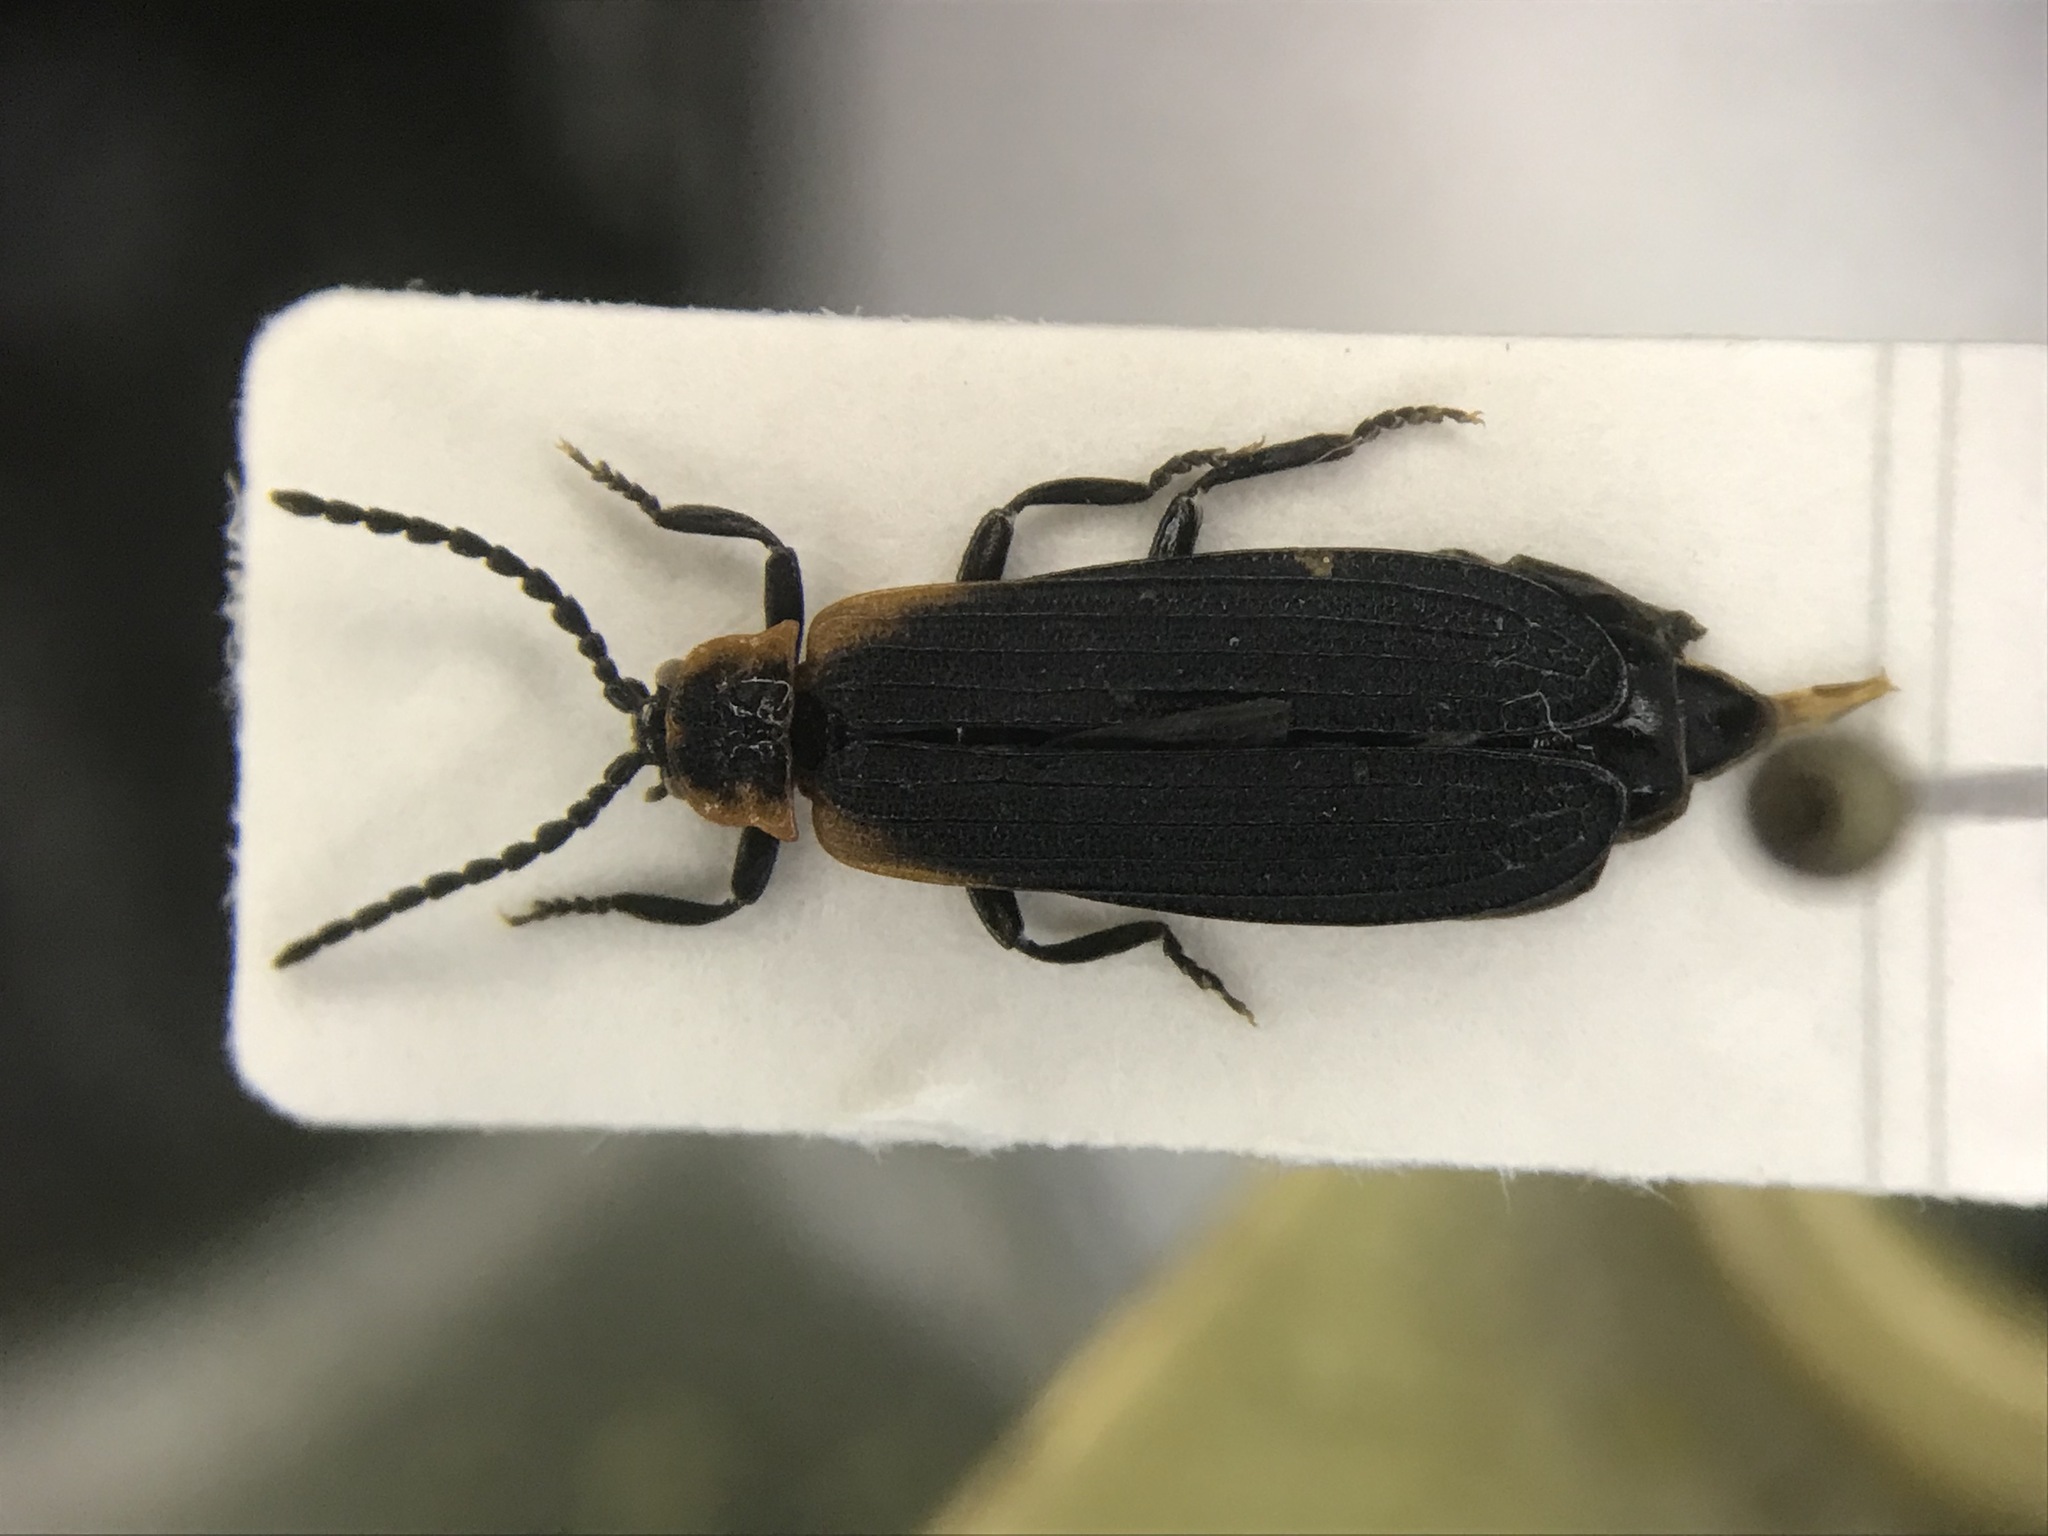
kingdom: Animalia
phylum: Arthropoda
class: Insecta
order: Coleoptera
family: Lycidae
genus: Eros
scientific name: Eros humeralis
